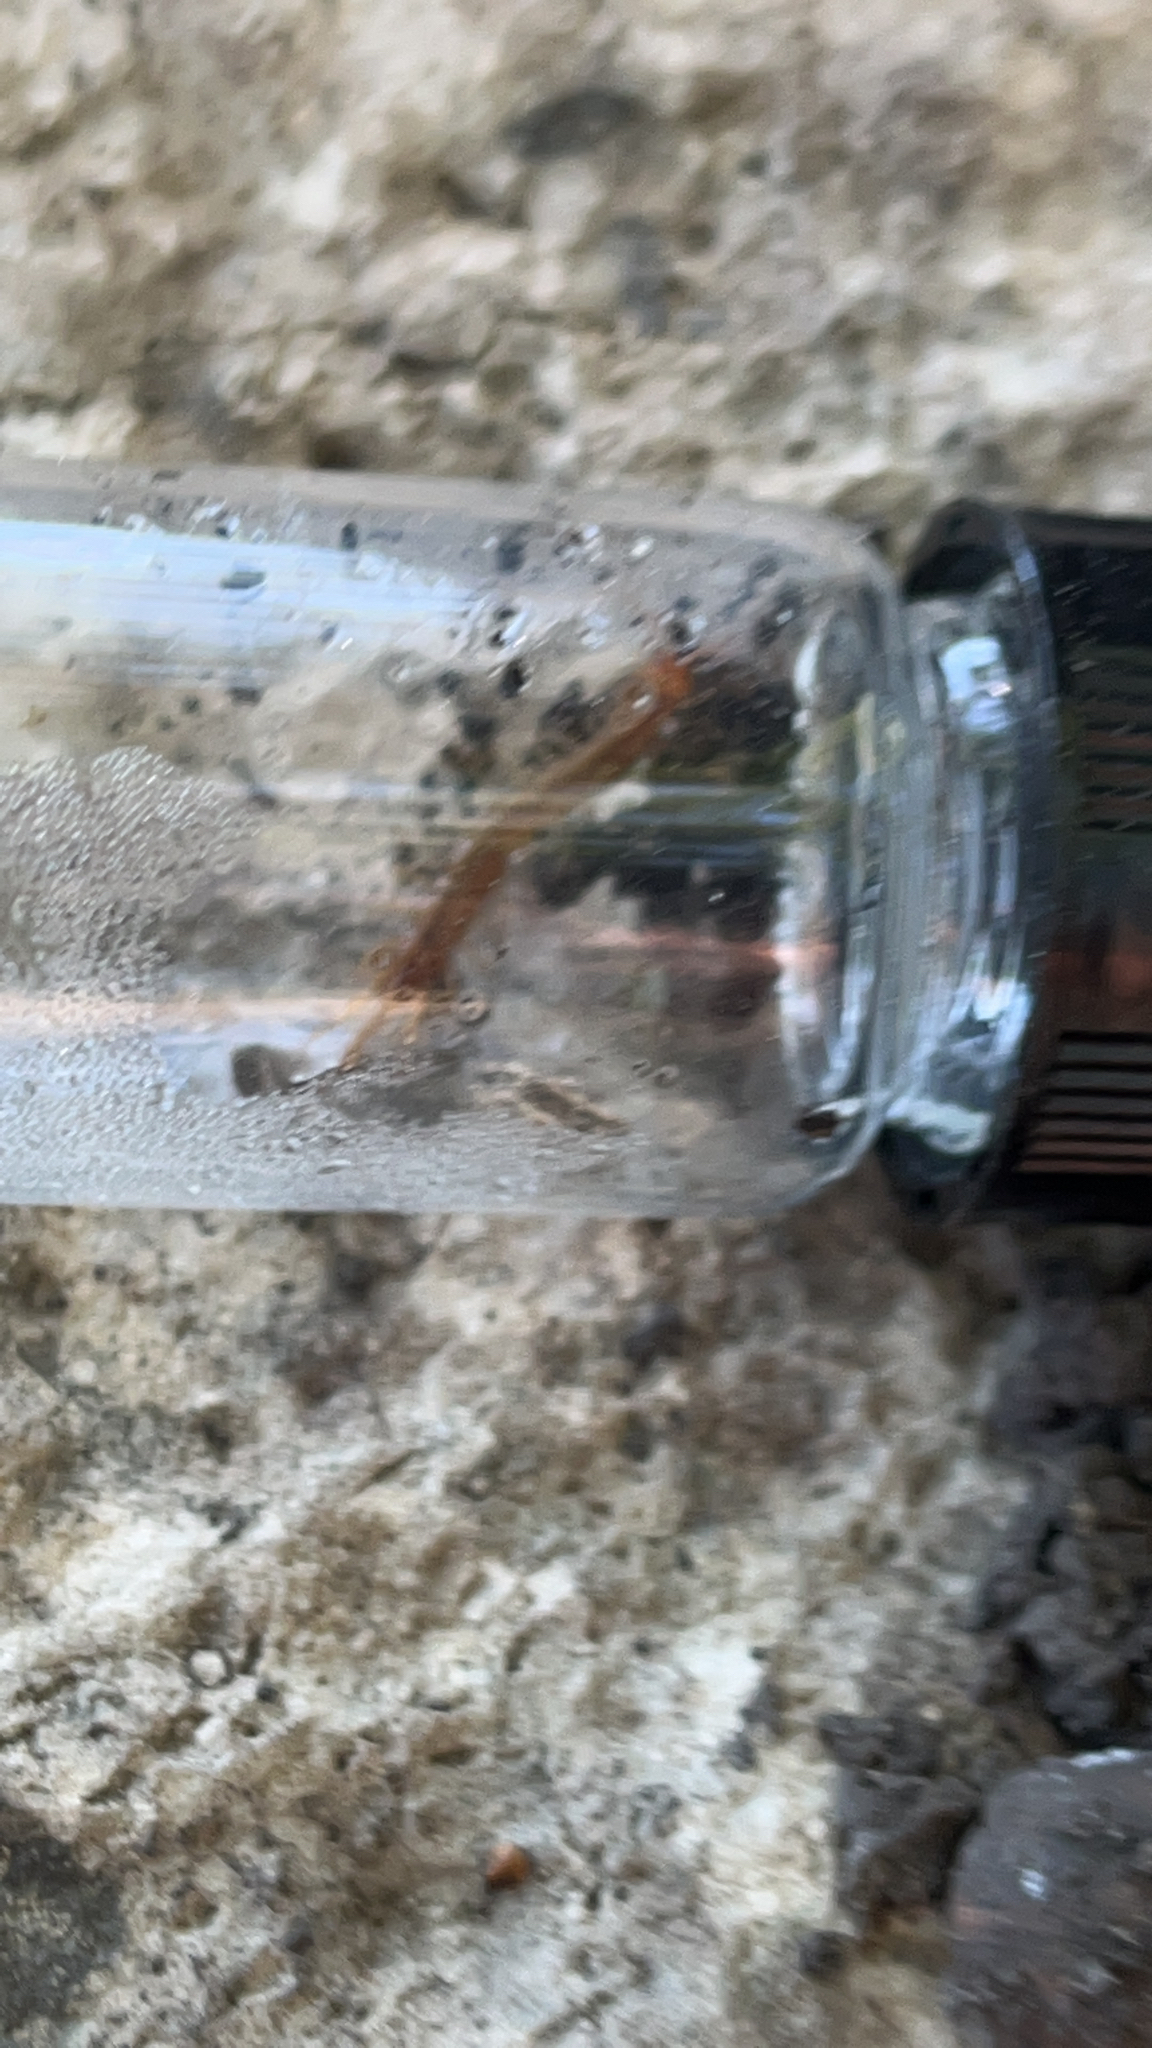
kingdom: Animalia
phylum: Arthropoda
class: Chilopoda
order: Lithobiomorpha
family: Lithobiidae
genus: Lithobius
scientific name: Lithobius forficatus
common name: Centipede
